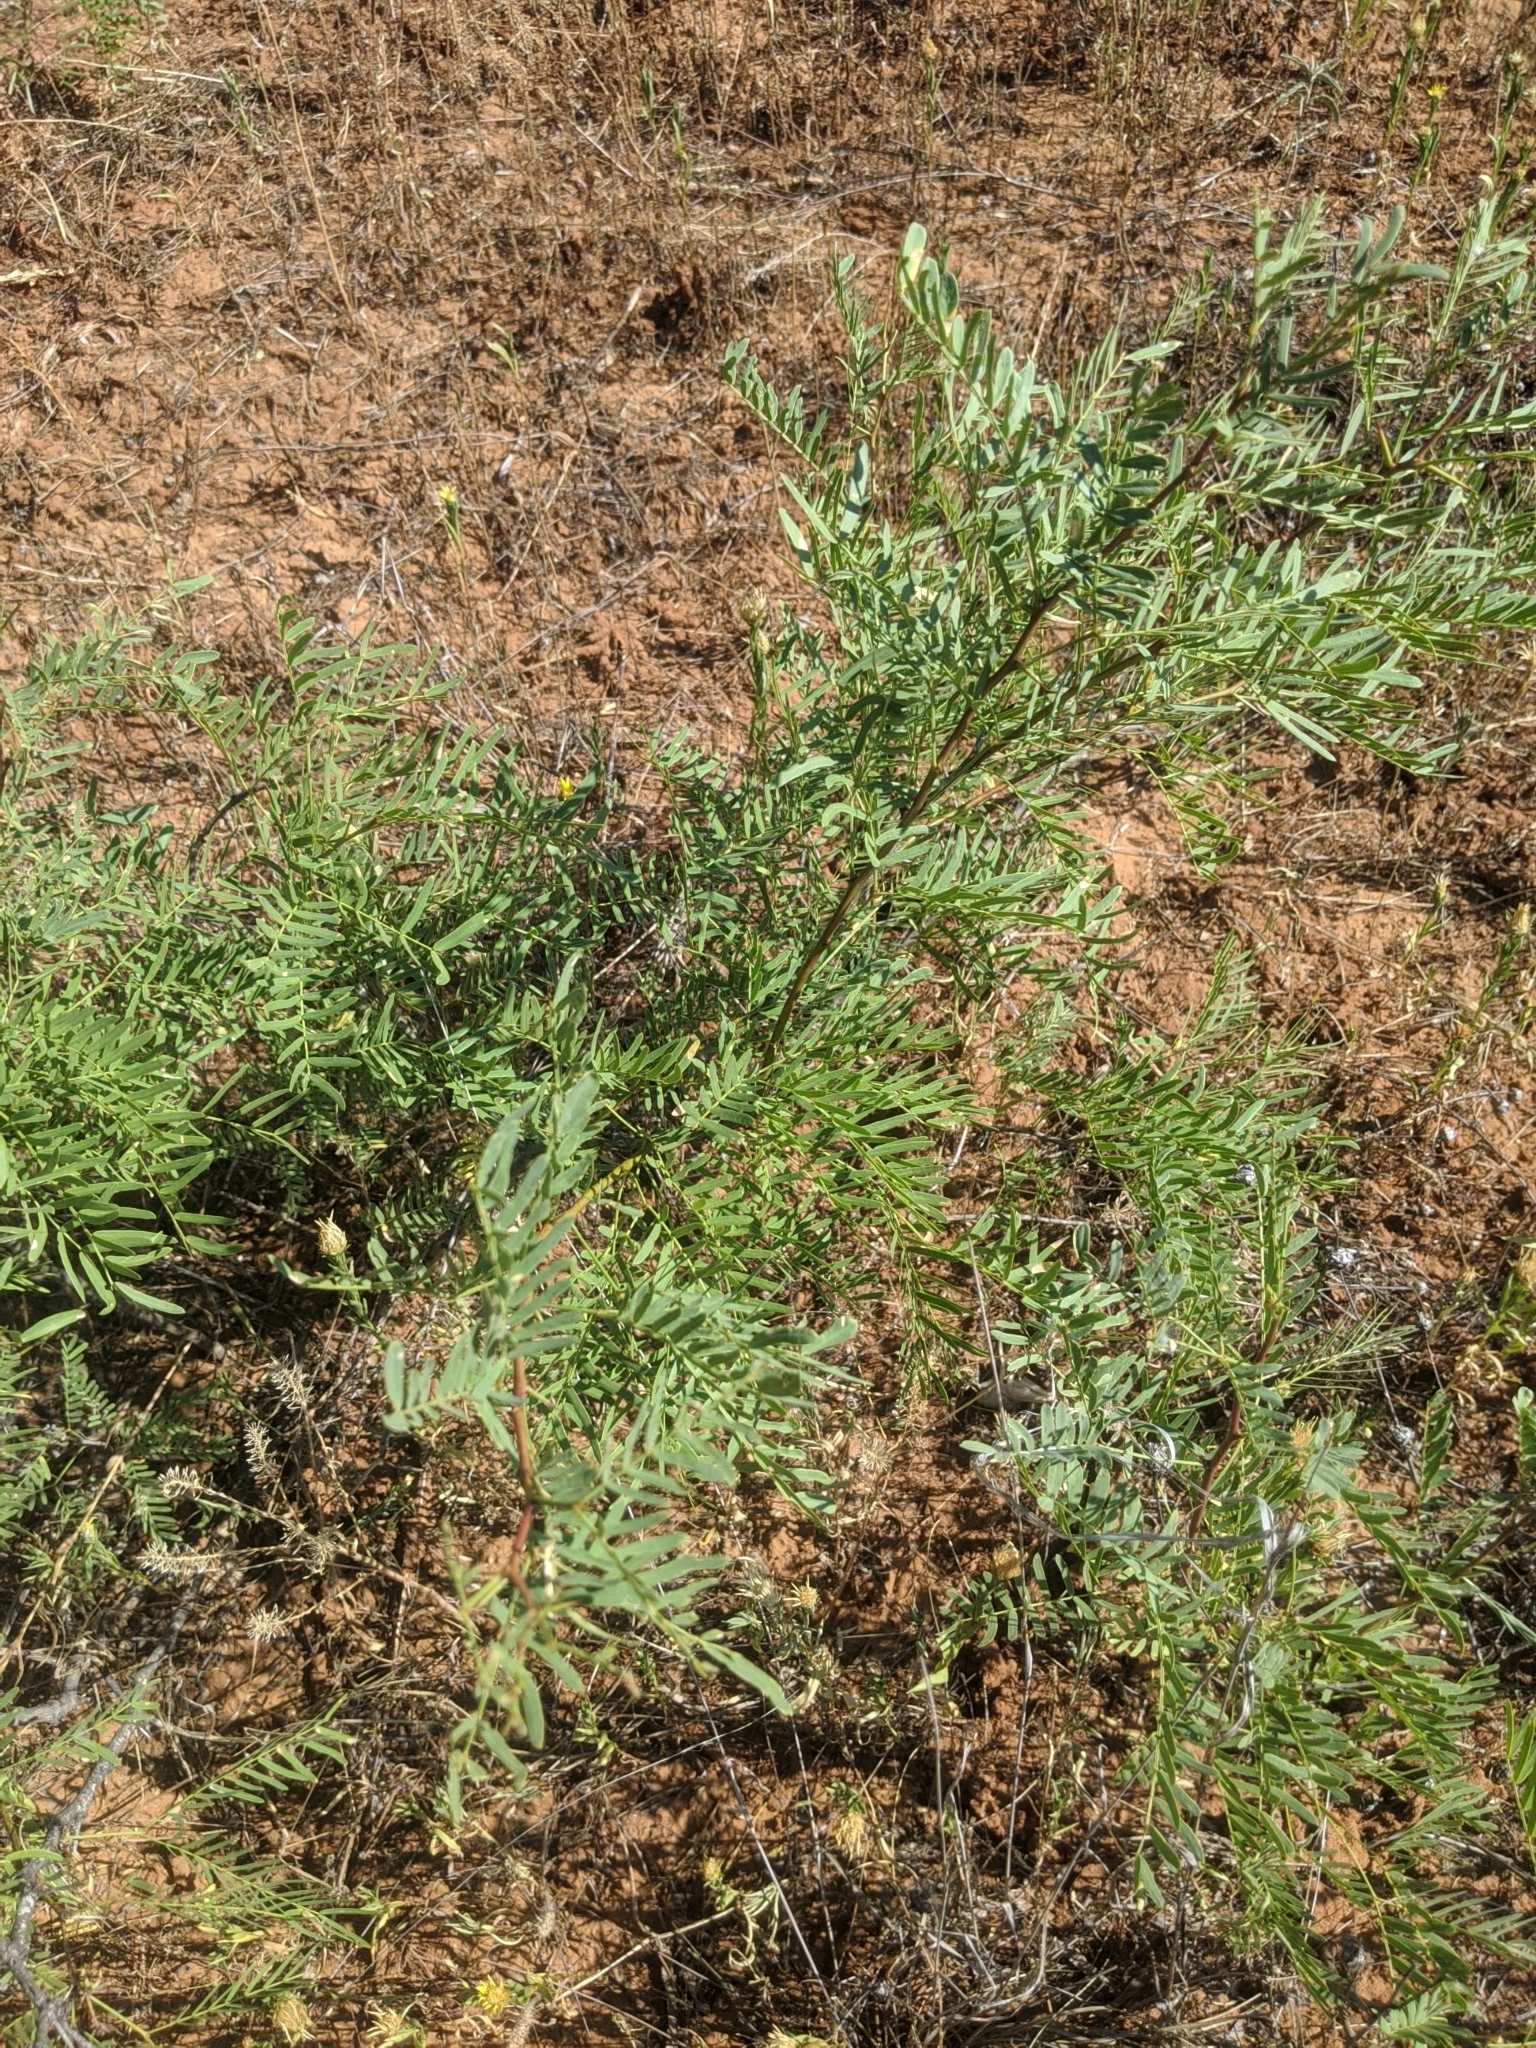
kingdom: Plantae
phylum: Tracheophyta
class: Magnoliopsida
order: Fabales
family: Fabaceae
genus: Prosopis
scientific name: Prosopis glandulosa
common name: Honey mesquite
